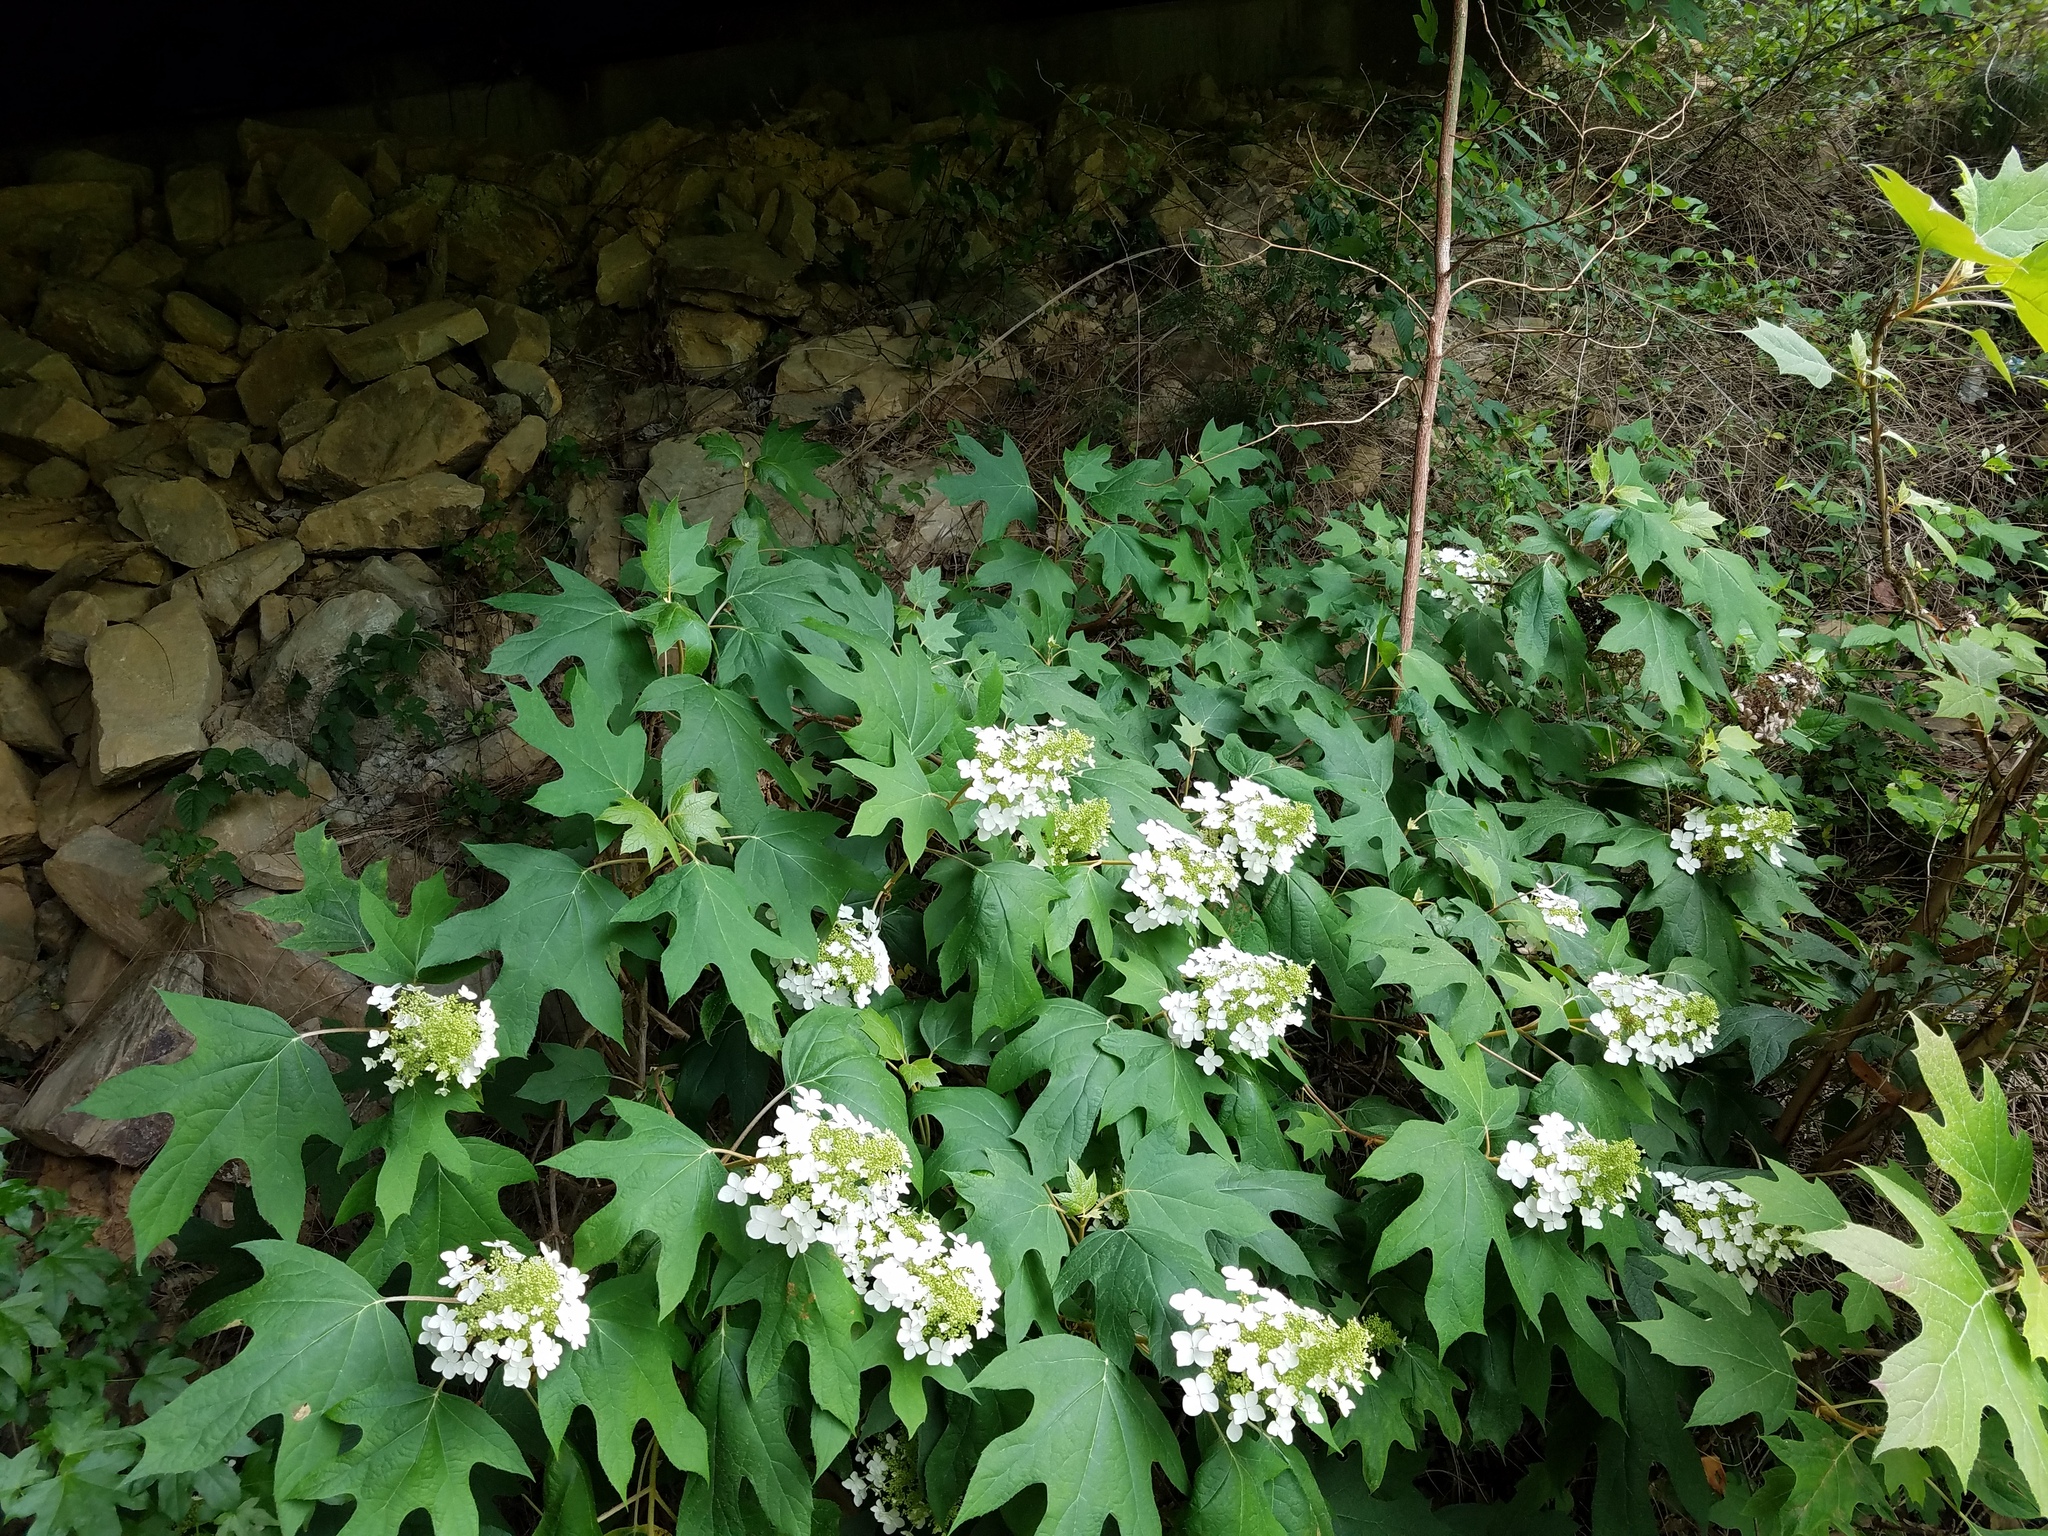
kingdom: Plantae
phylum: Tracheophyta
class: Magnoliopsida
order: Cornales
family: Hydrangeaceae
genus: Hydrangea
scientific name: Hydrangea quercifolia
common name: Oak-leaf hydrangea
